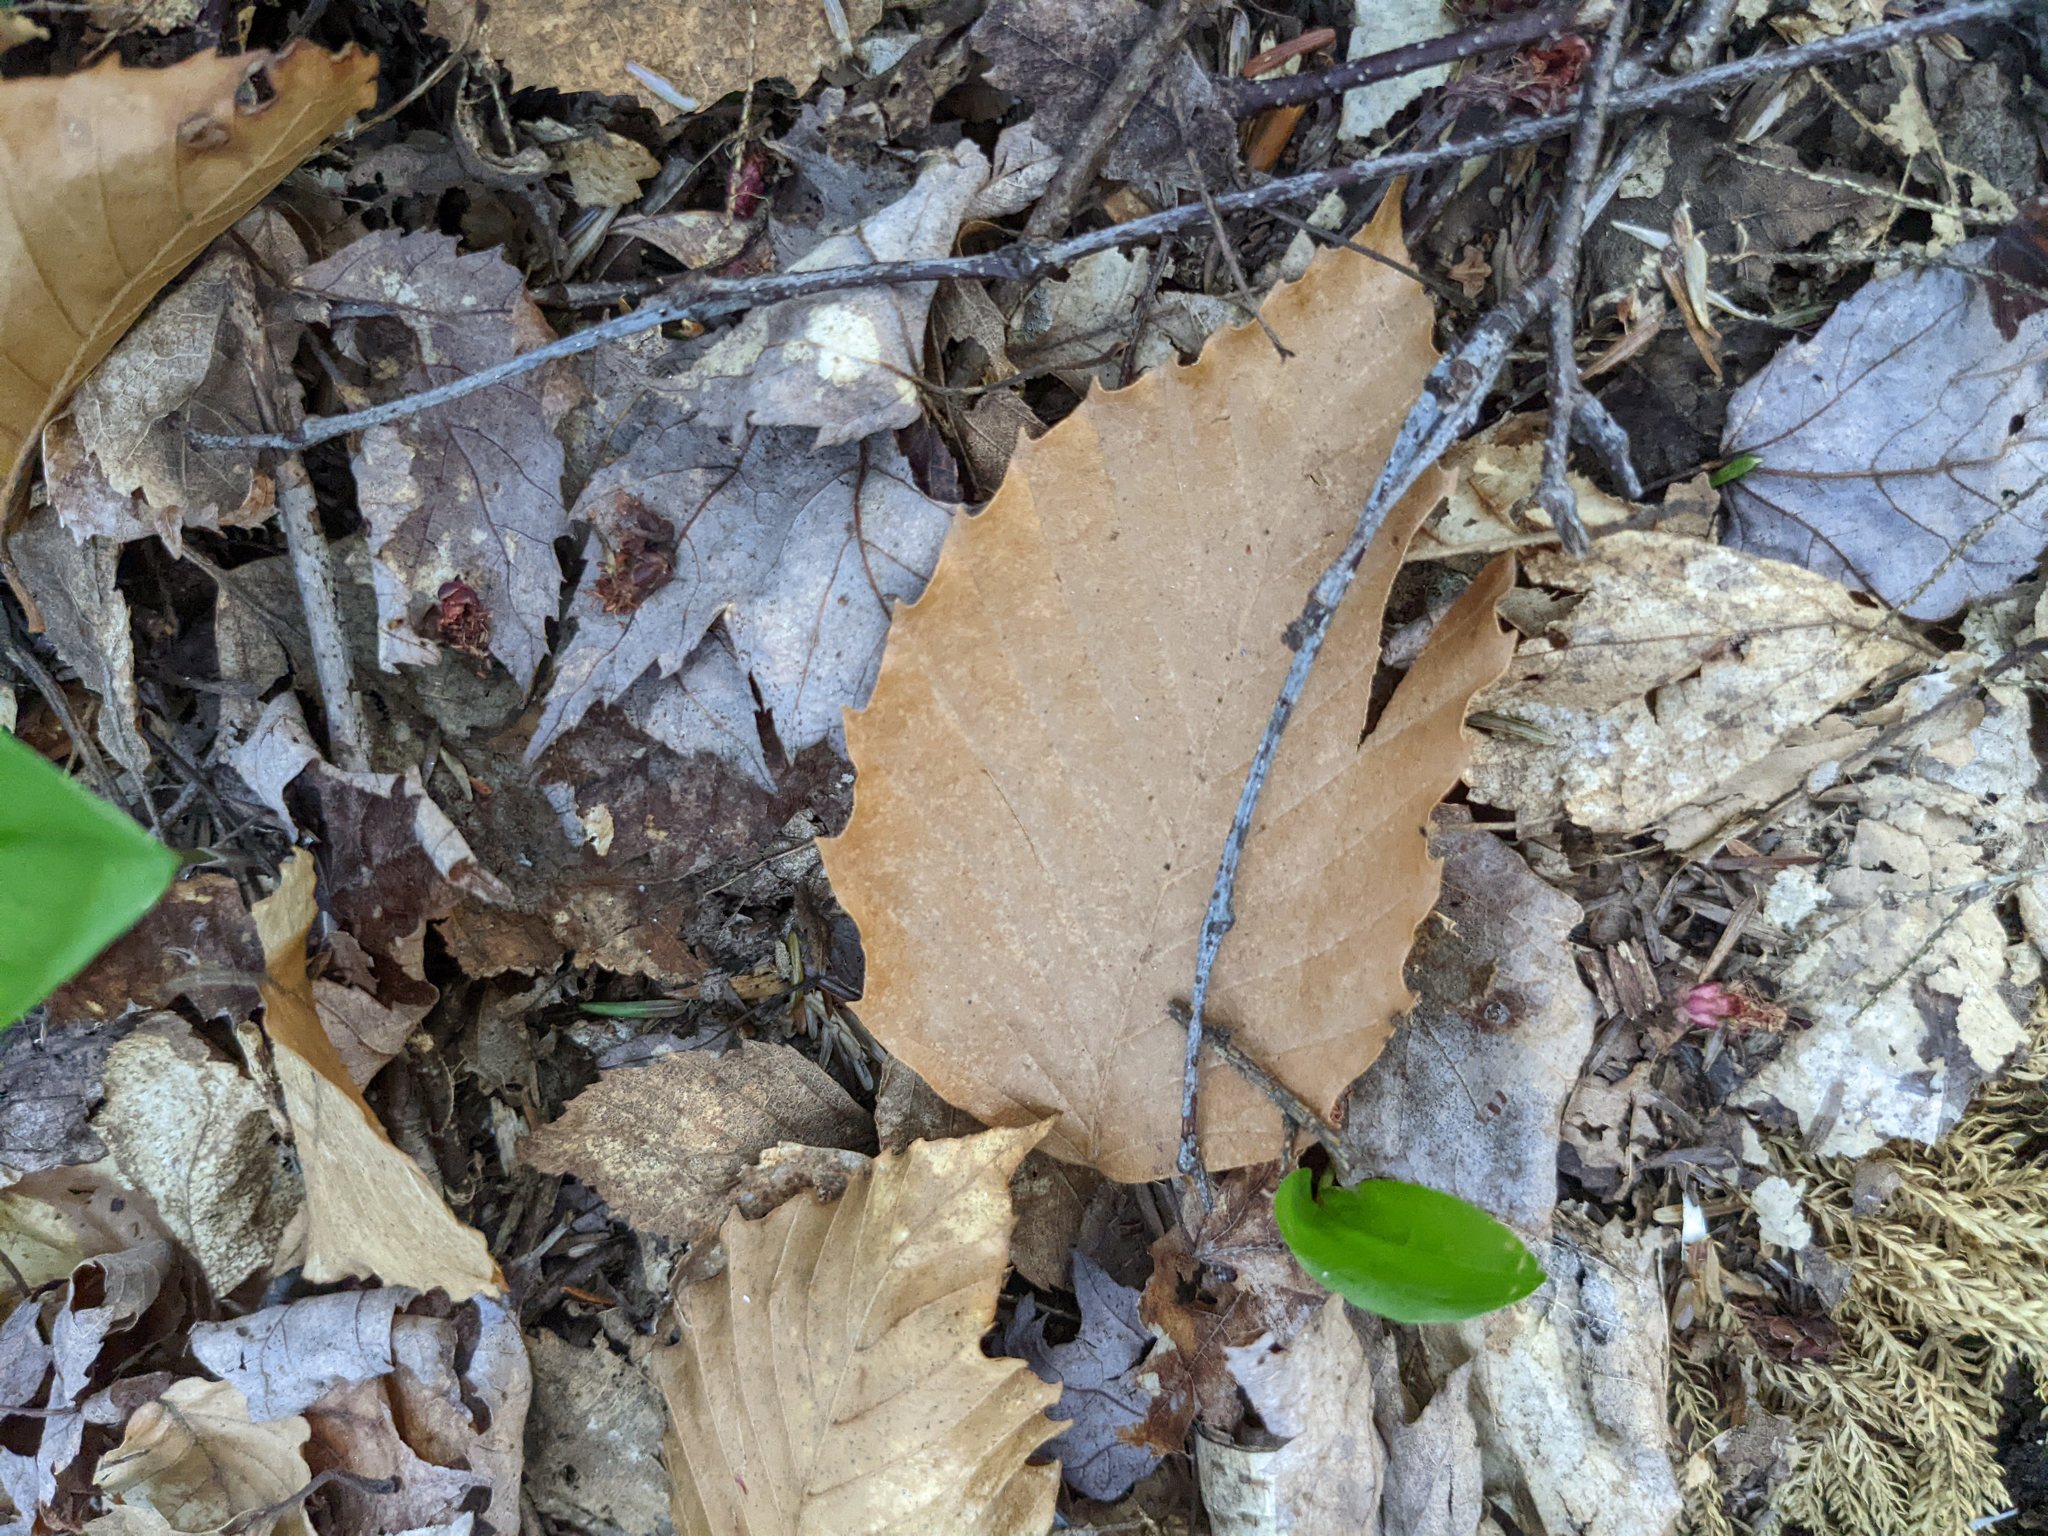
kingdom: Plantae
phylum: Tracheophyta
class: Magnoliopsida
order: Fagales
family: Fagaceae
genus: Fagus
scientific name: Fagus grandifolia
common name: American beech
